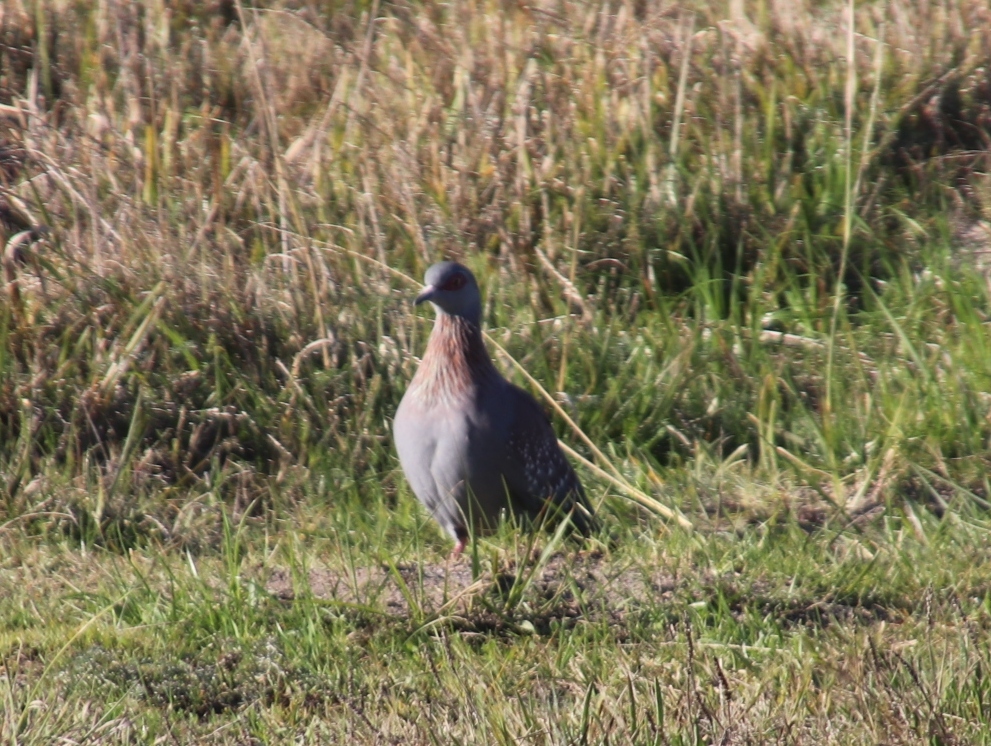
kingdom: Animalia
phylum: Chordata
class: Aves
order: Columbiformes
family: Columbidae
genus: Columba
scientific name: Columba guinea
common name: Speckled pigeon
